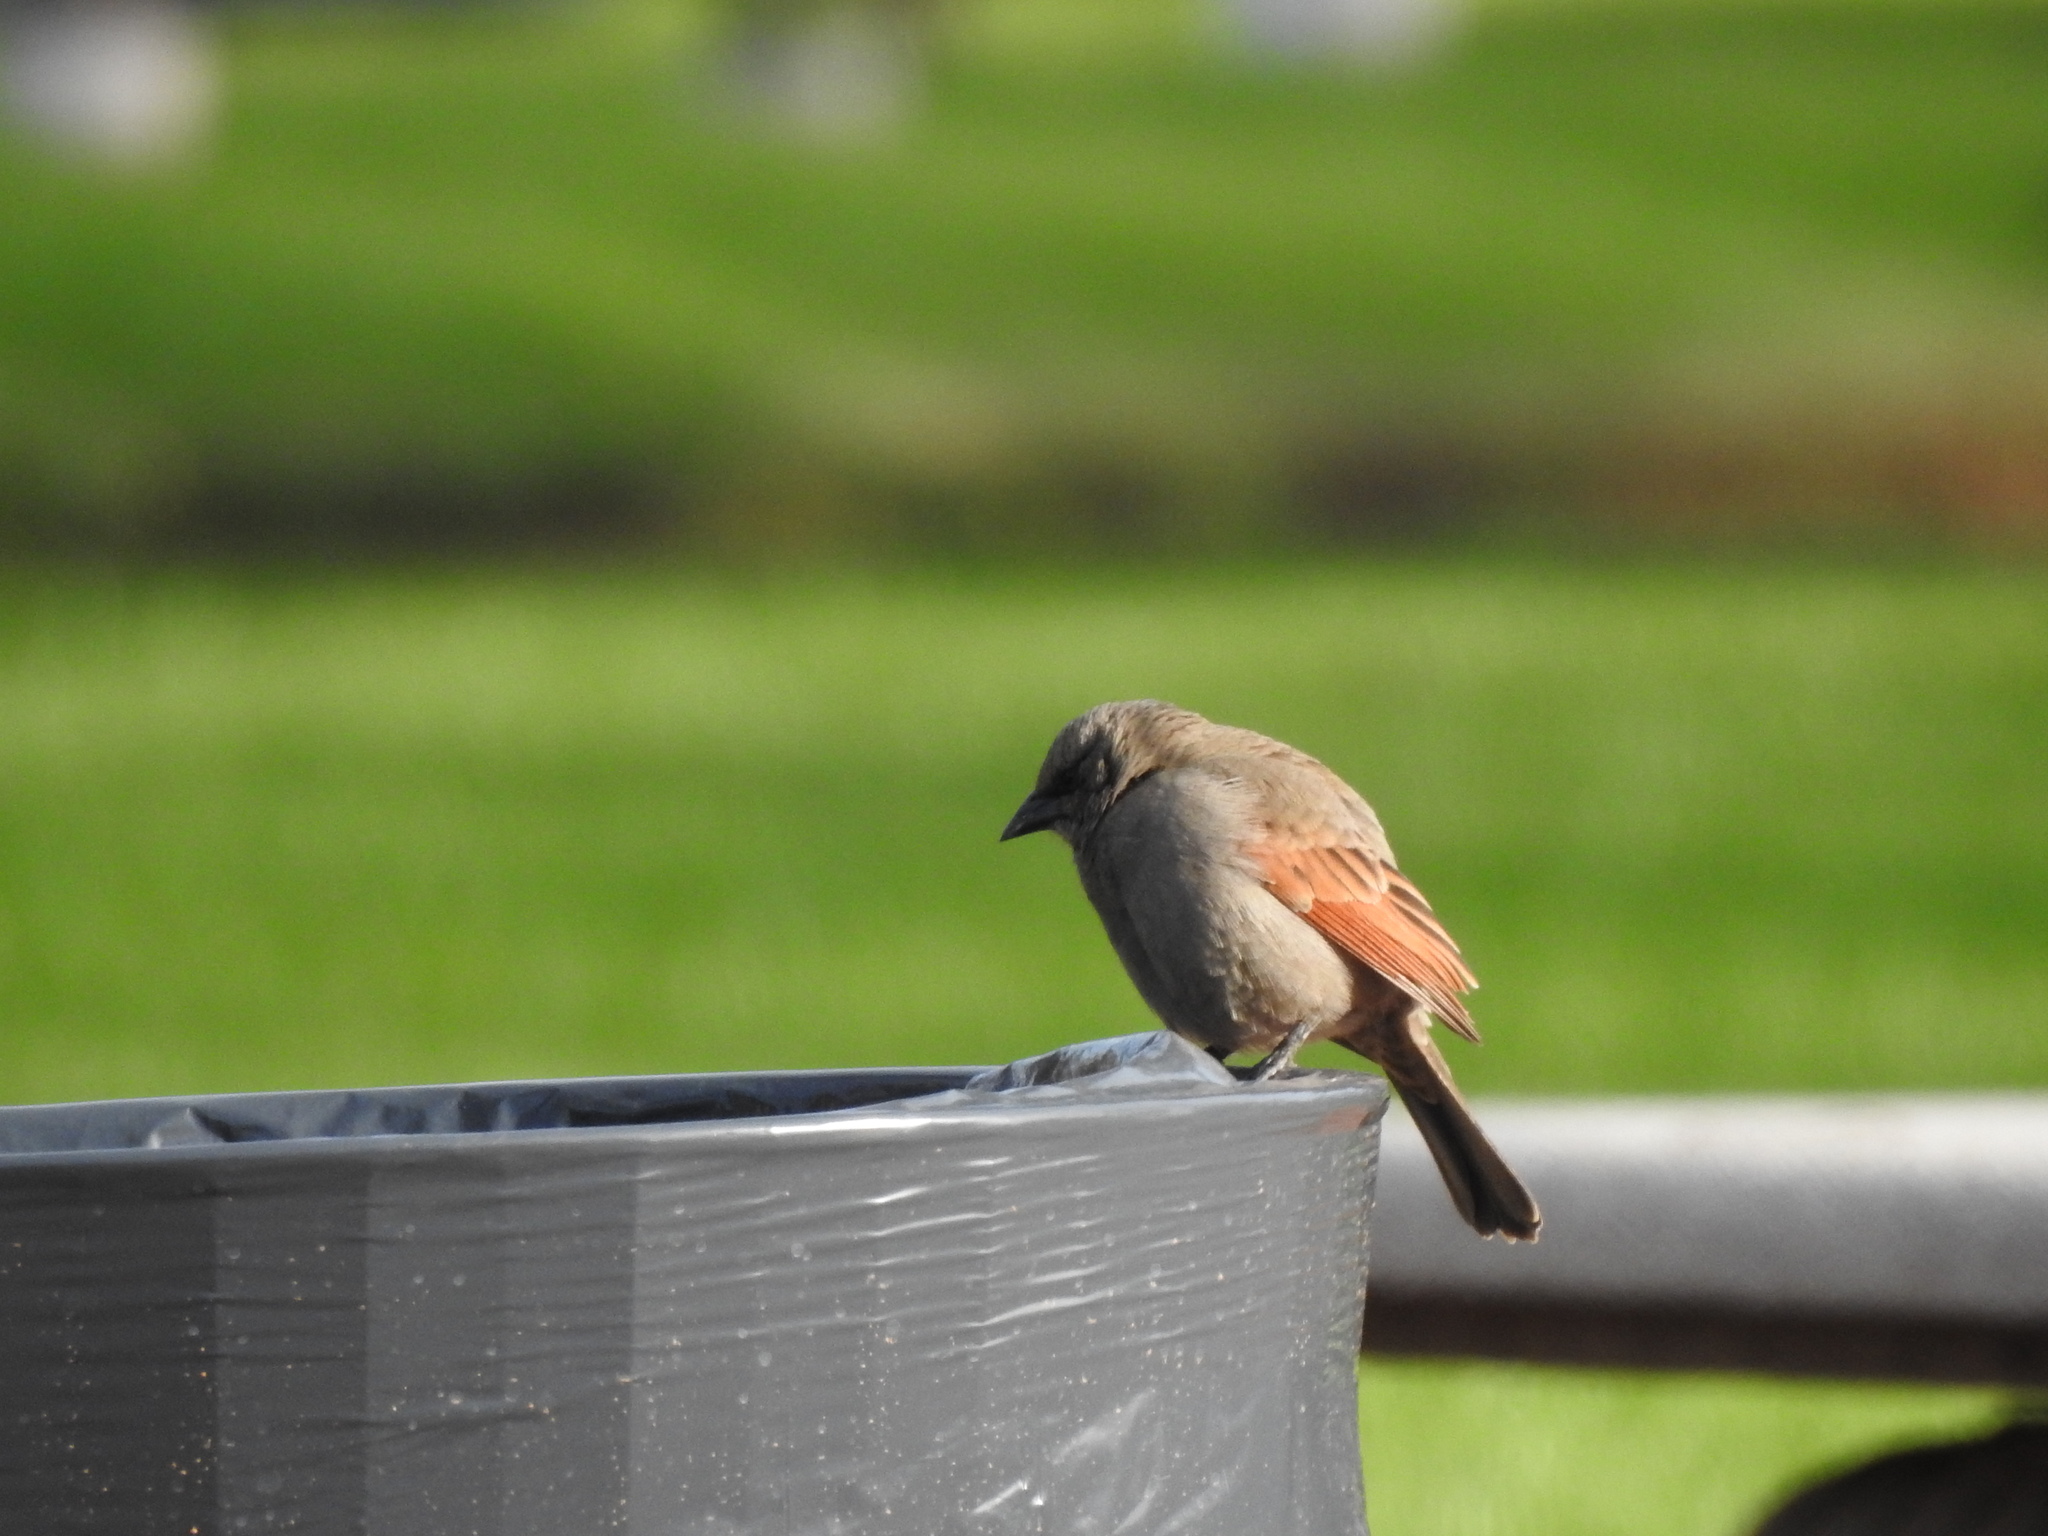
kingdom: Animalia
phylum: Chordata
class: Aves
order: Passeriformes
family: Icteridae
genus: Agelaioides
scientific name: Agelaioides badius
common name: Baywing
